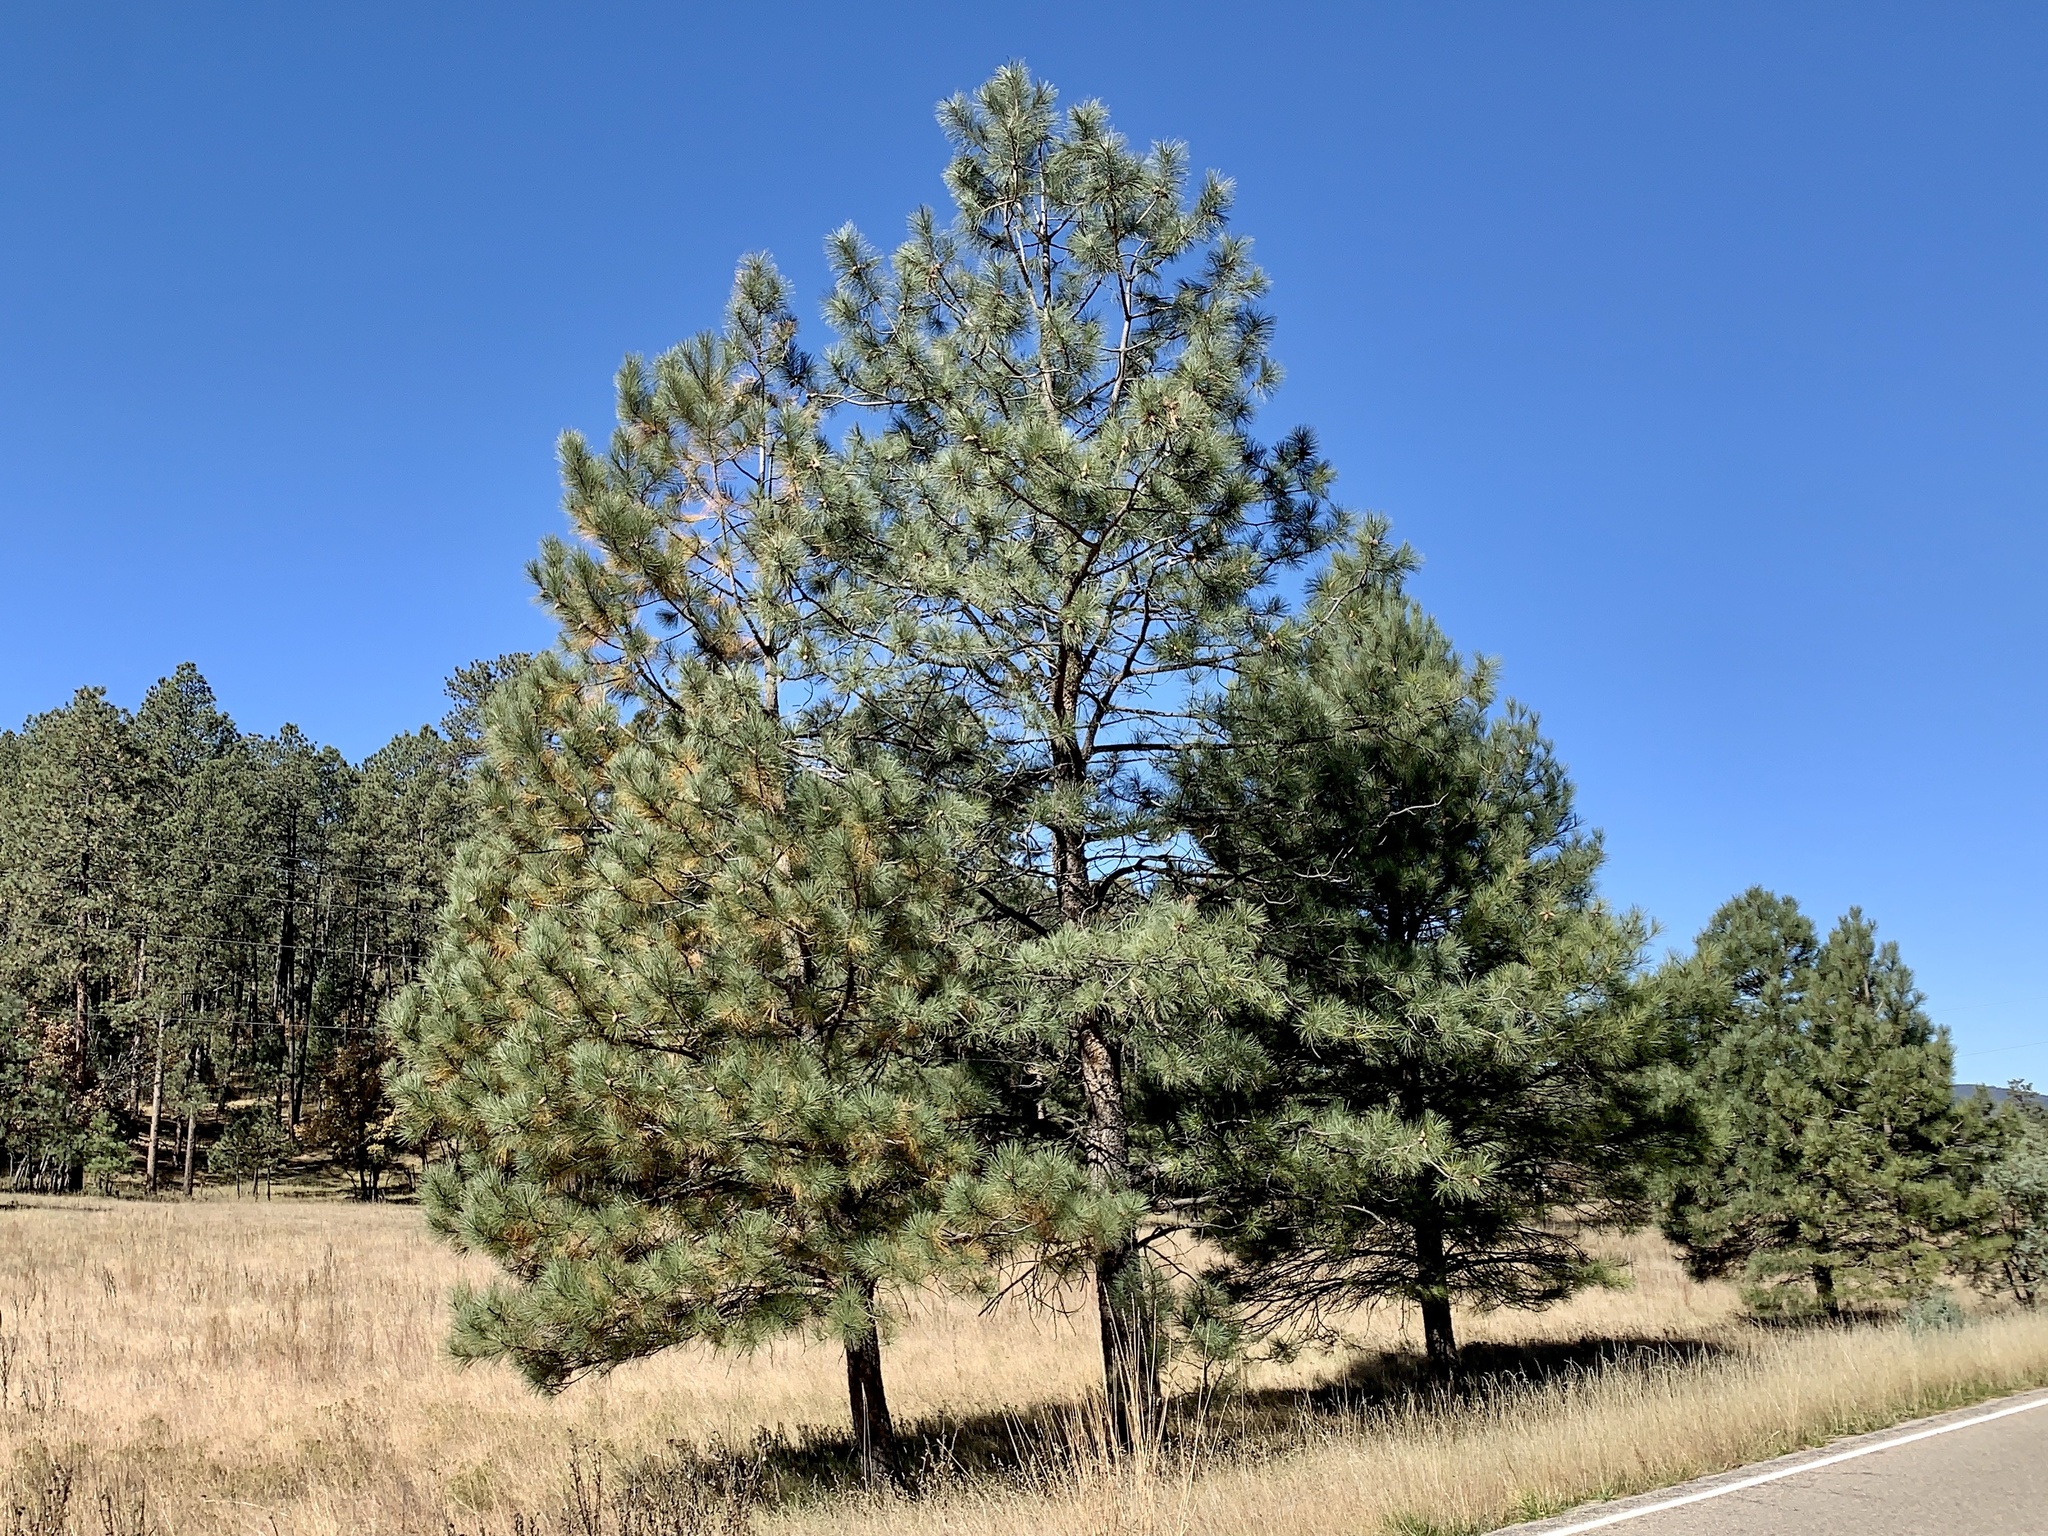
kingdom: Plantae
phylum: Tracheophyta
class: Pinopsida
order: Pinales
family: Pinaceae
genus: Pinus
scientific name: Pinus ponderosa
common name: Western yellow-pine
